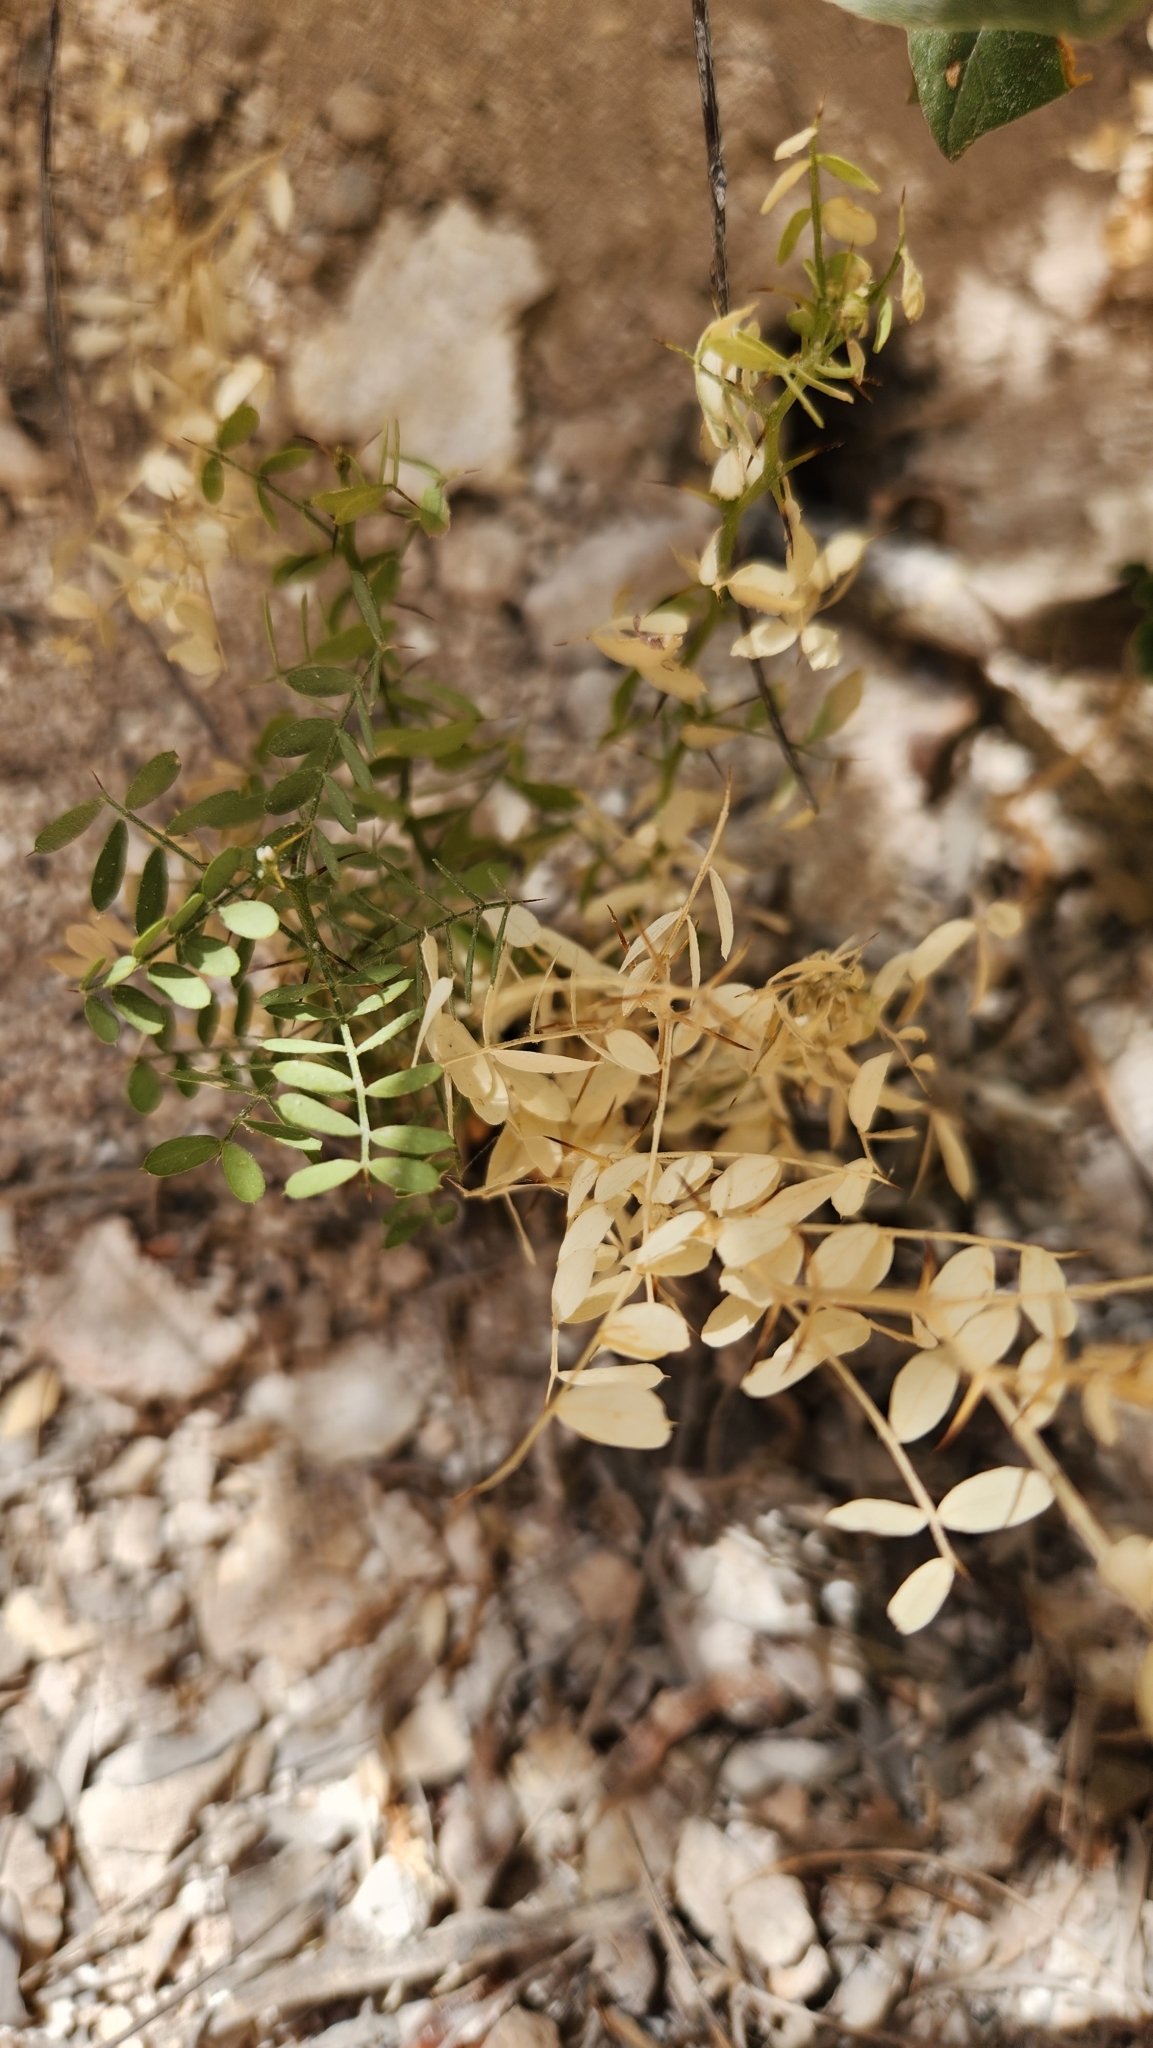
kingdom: Plantae
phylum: Tracheophyta
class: Magnoliopsida
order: Fabales
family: Fabaceae
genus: Olneya
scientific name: Olneya tesota
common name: Desert ironwood
